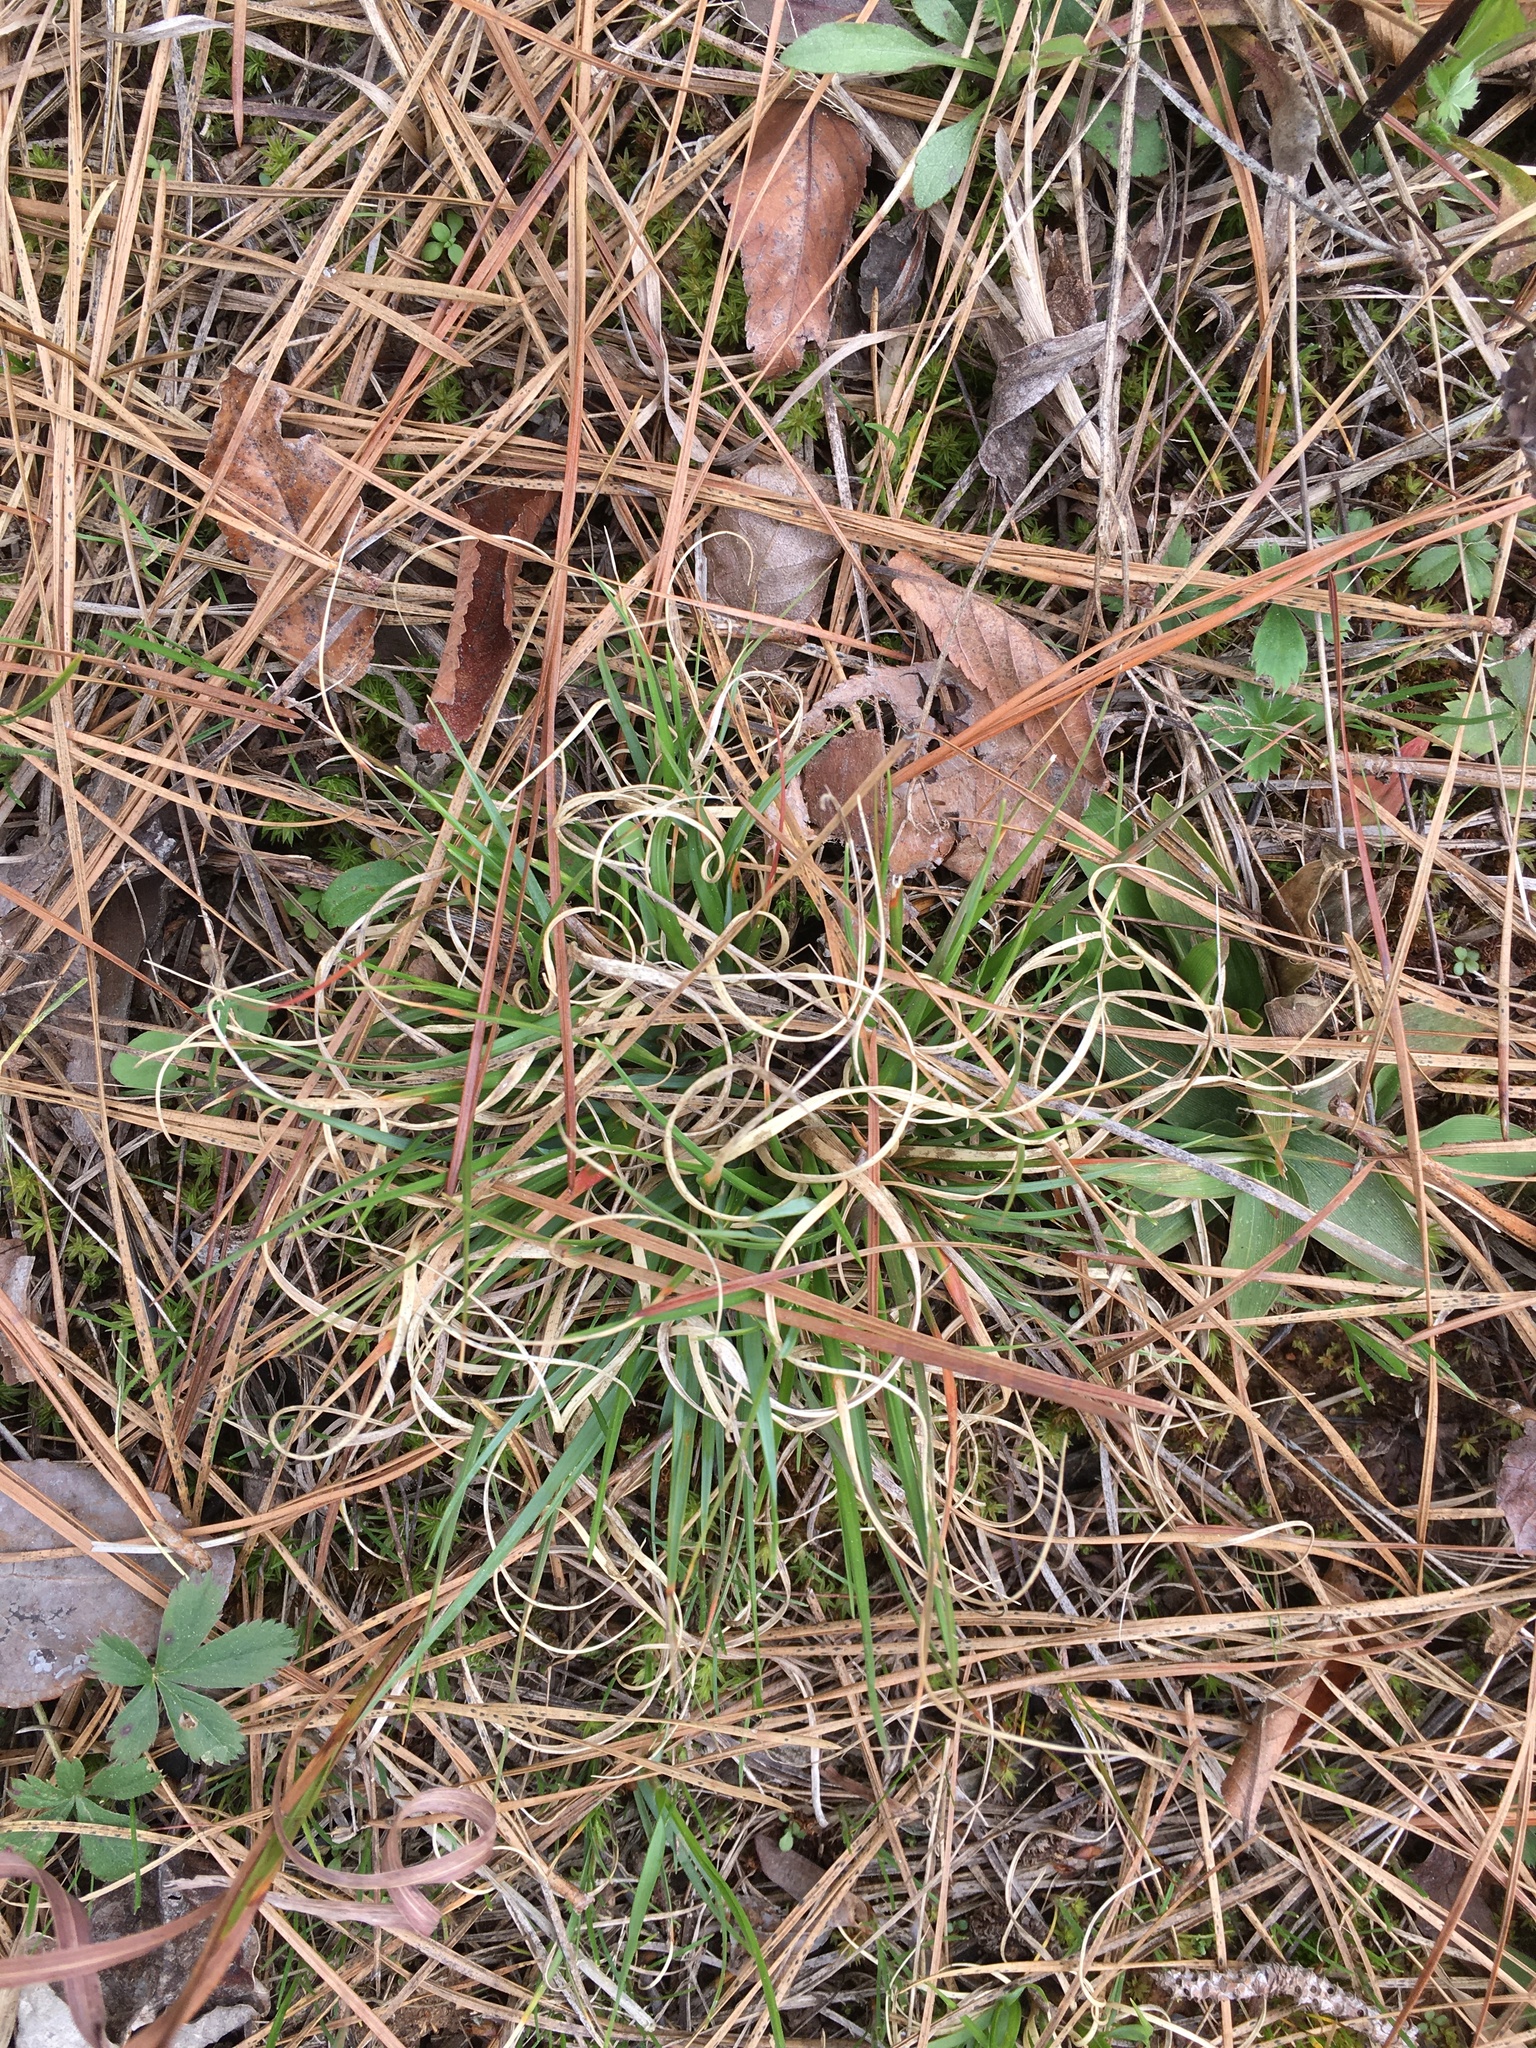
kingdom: Plantae
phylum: Tracheophyta
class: Liliopsida
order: Poales
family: Poaceae
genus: Danthonia
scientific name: Danthonia spicata
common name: Common wild oatgrass
